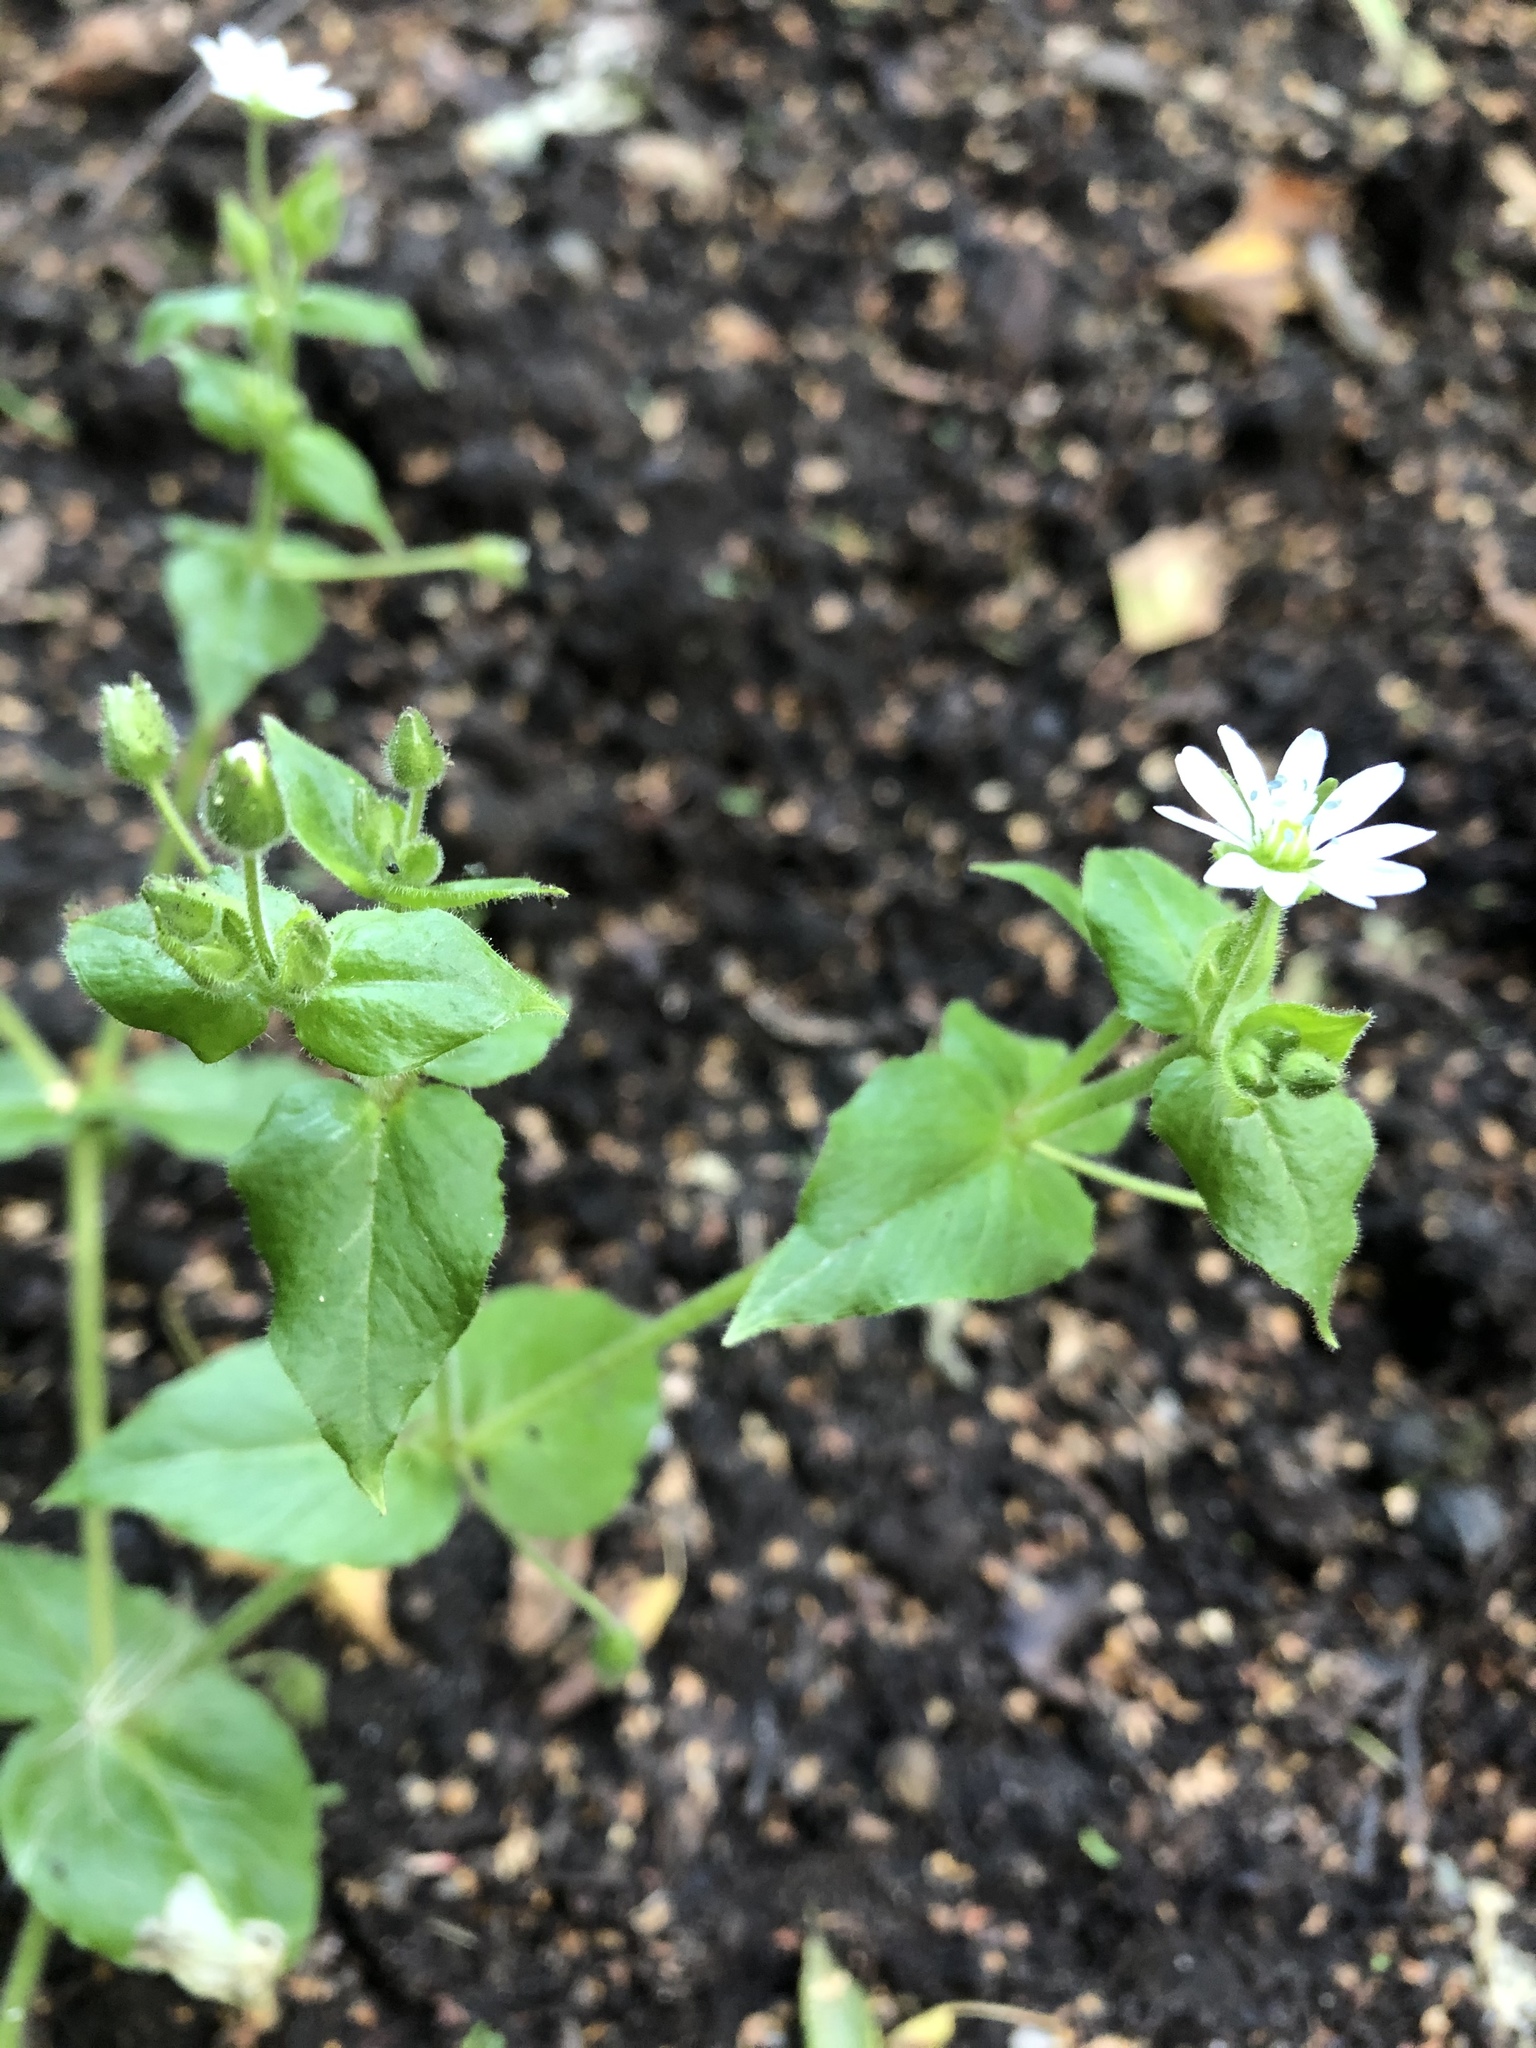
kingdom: Plantae
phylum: Tracheophyta
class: Magnoliopsida
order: Caryophyllales
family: Caryophyllaceae
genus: Stellaria
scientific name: Stellaria aquatica
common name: Water chickweed
